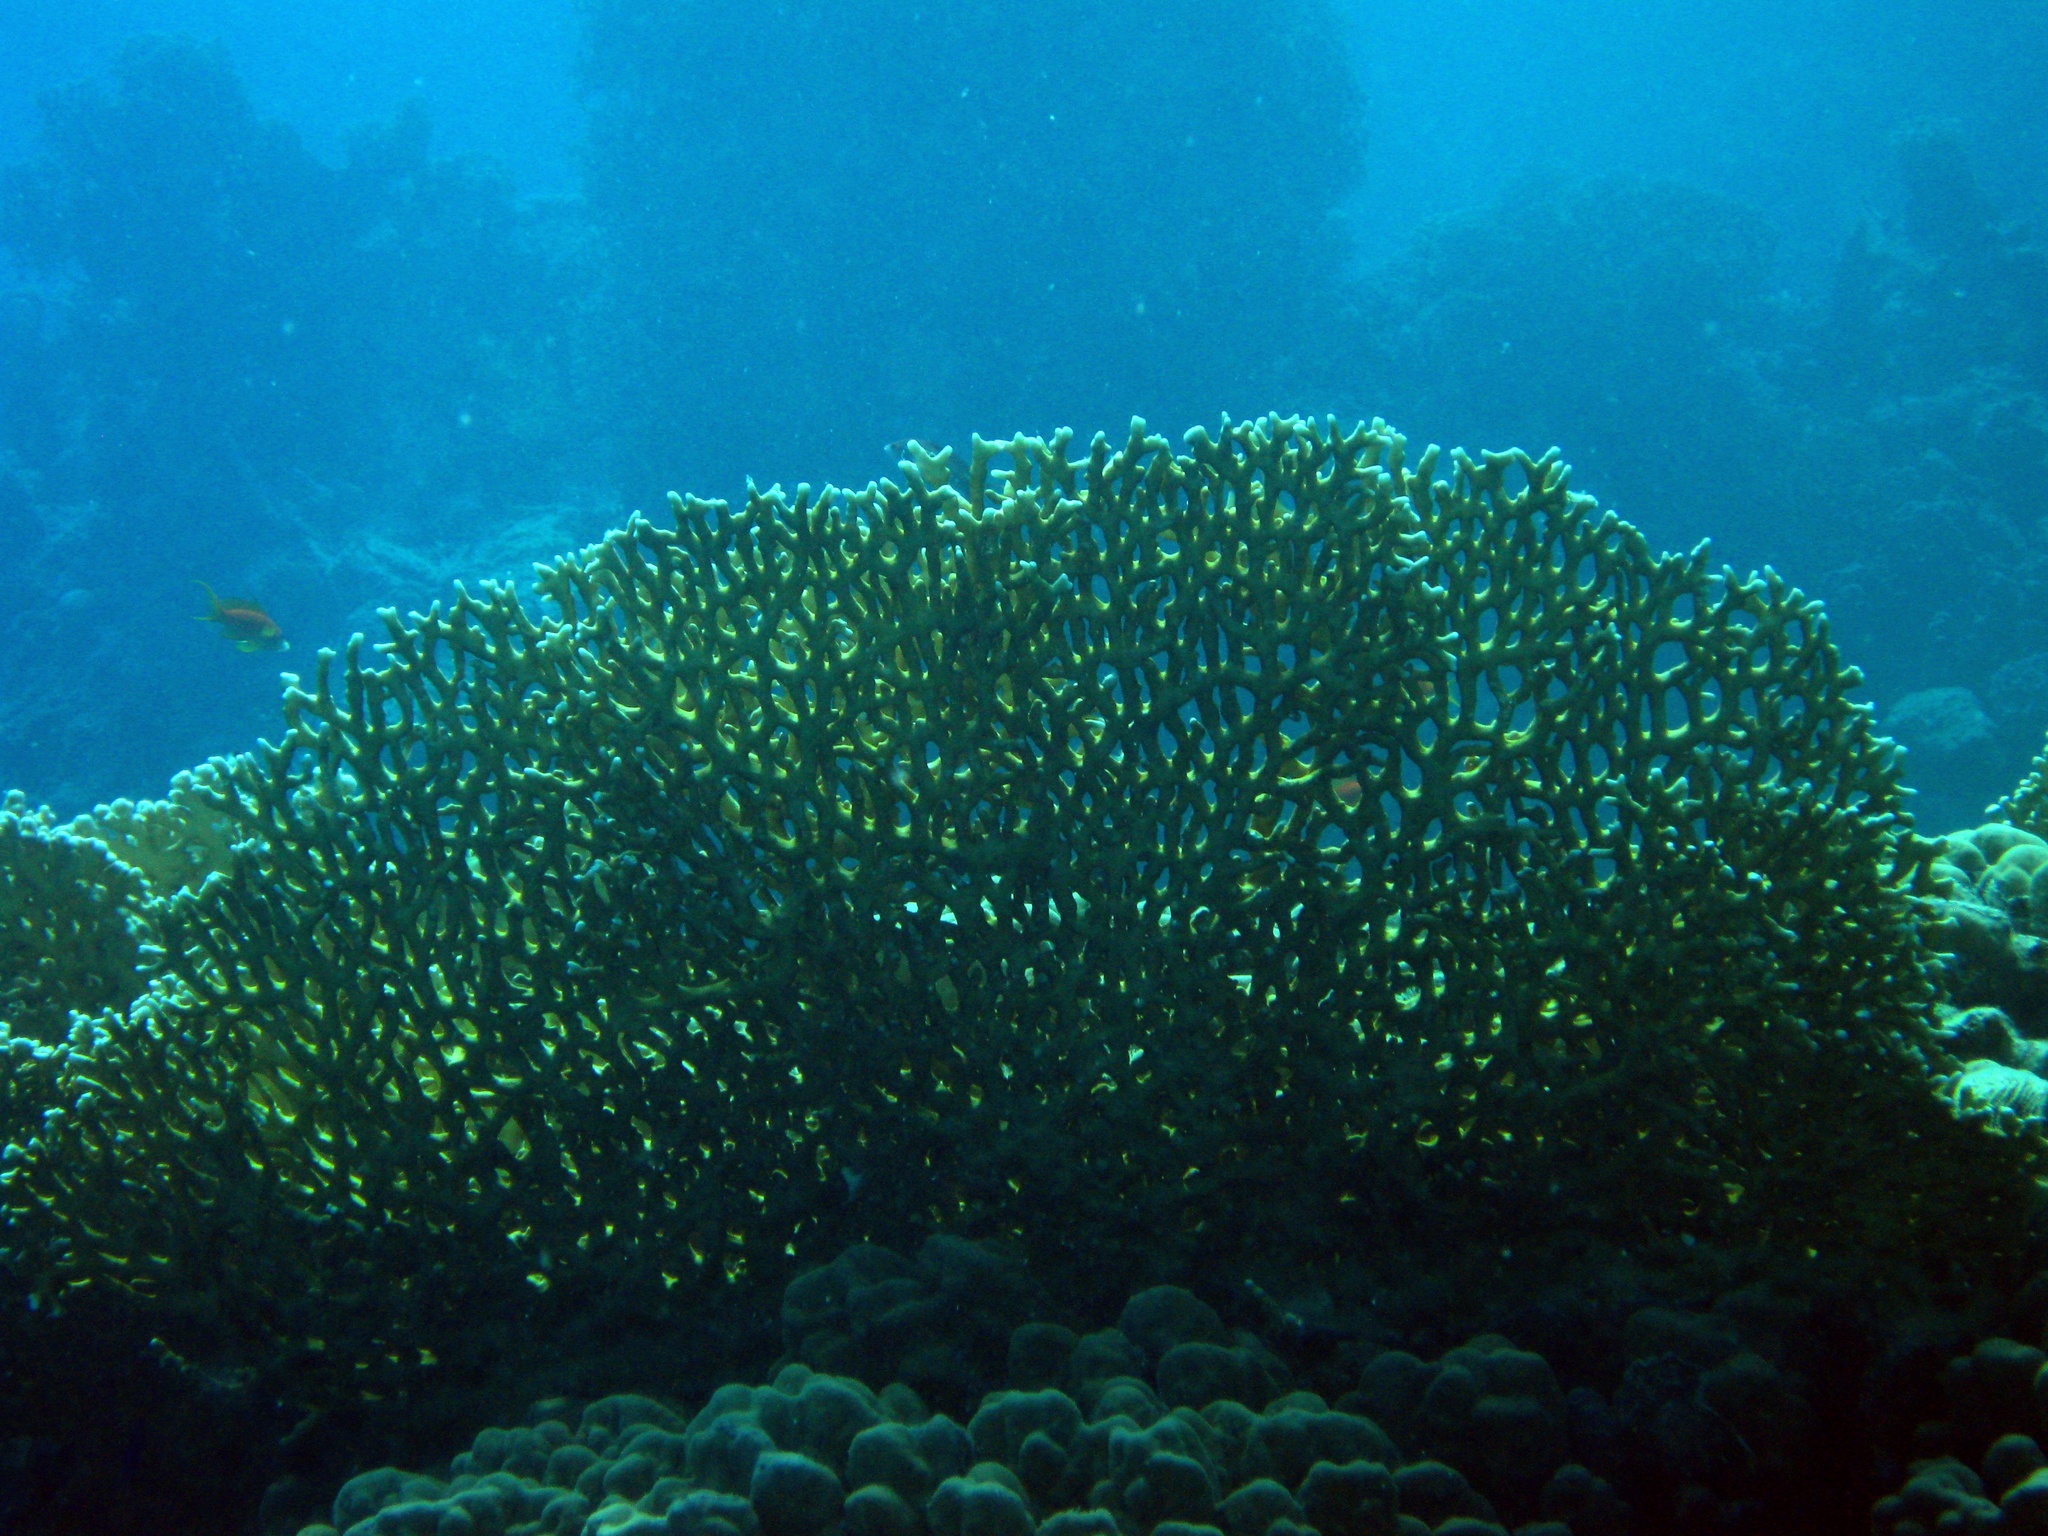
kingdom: Animalia
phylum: Cnidaria
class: Hydrozoa
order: Anthoathecata
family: Milleporidae
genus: Millepora
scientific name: Millepora dichotoma
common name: Ramified fire coral
